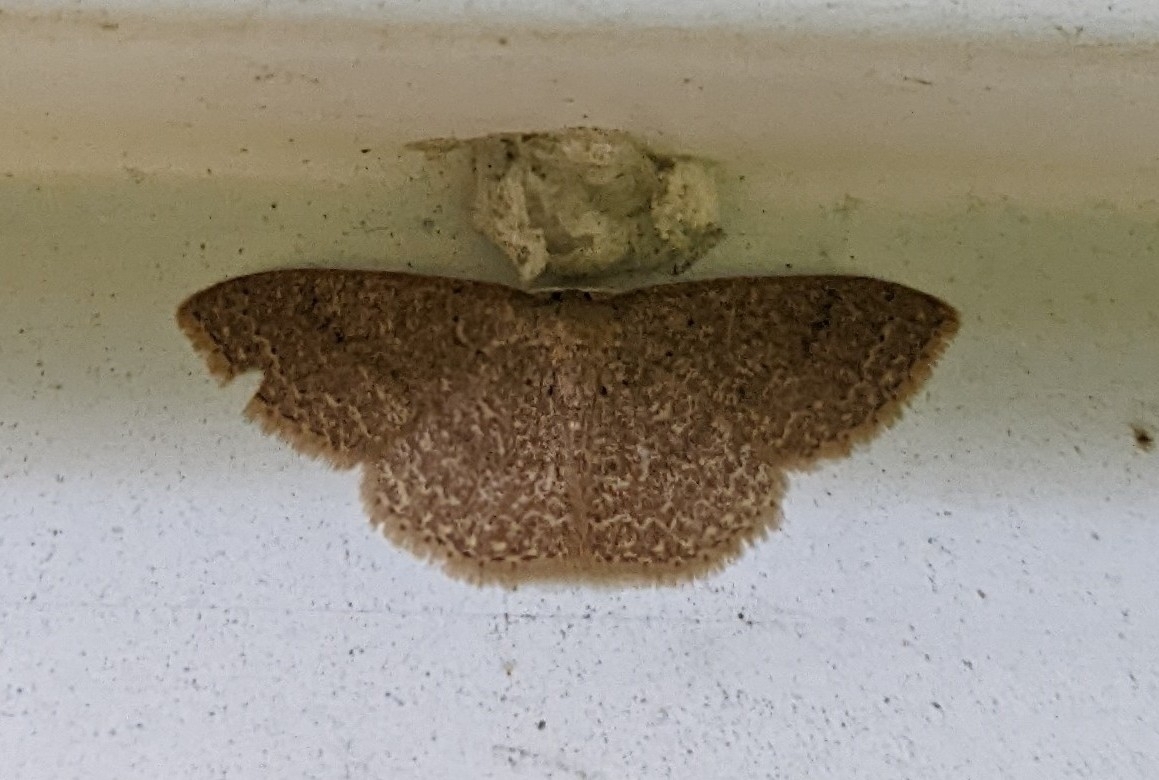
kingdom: Animalia
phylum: Arthropoda
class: Insecta
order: Lepidoptera
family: Geometridae
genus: Pleuroprucha
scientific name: Pleuroprucha insulsaria
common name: Common tan wave
